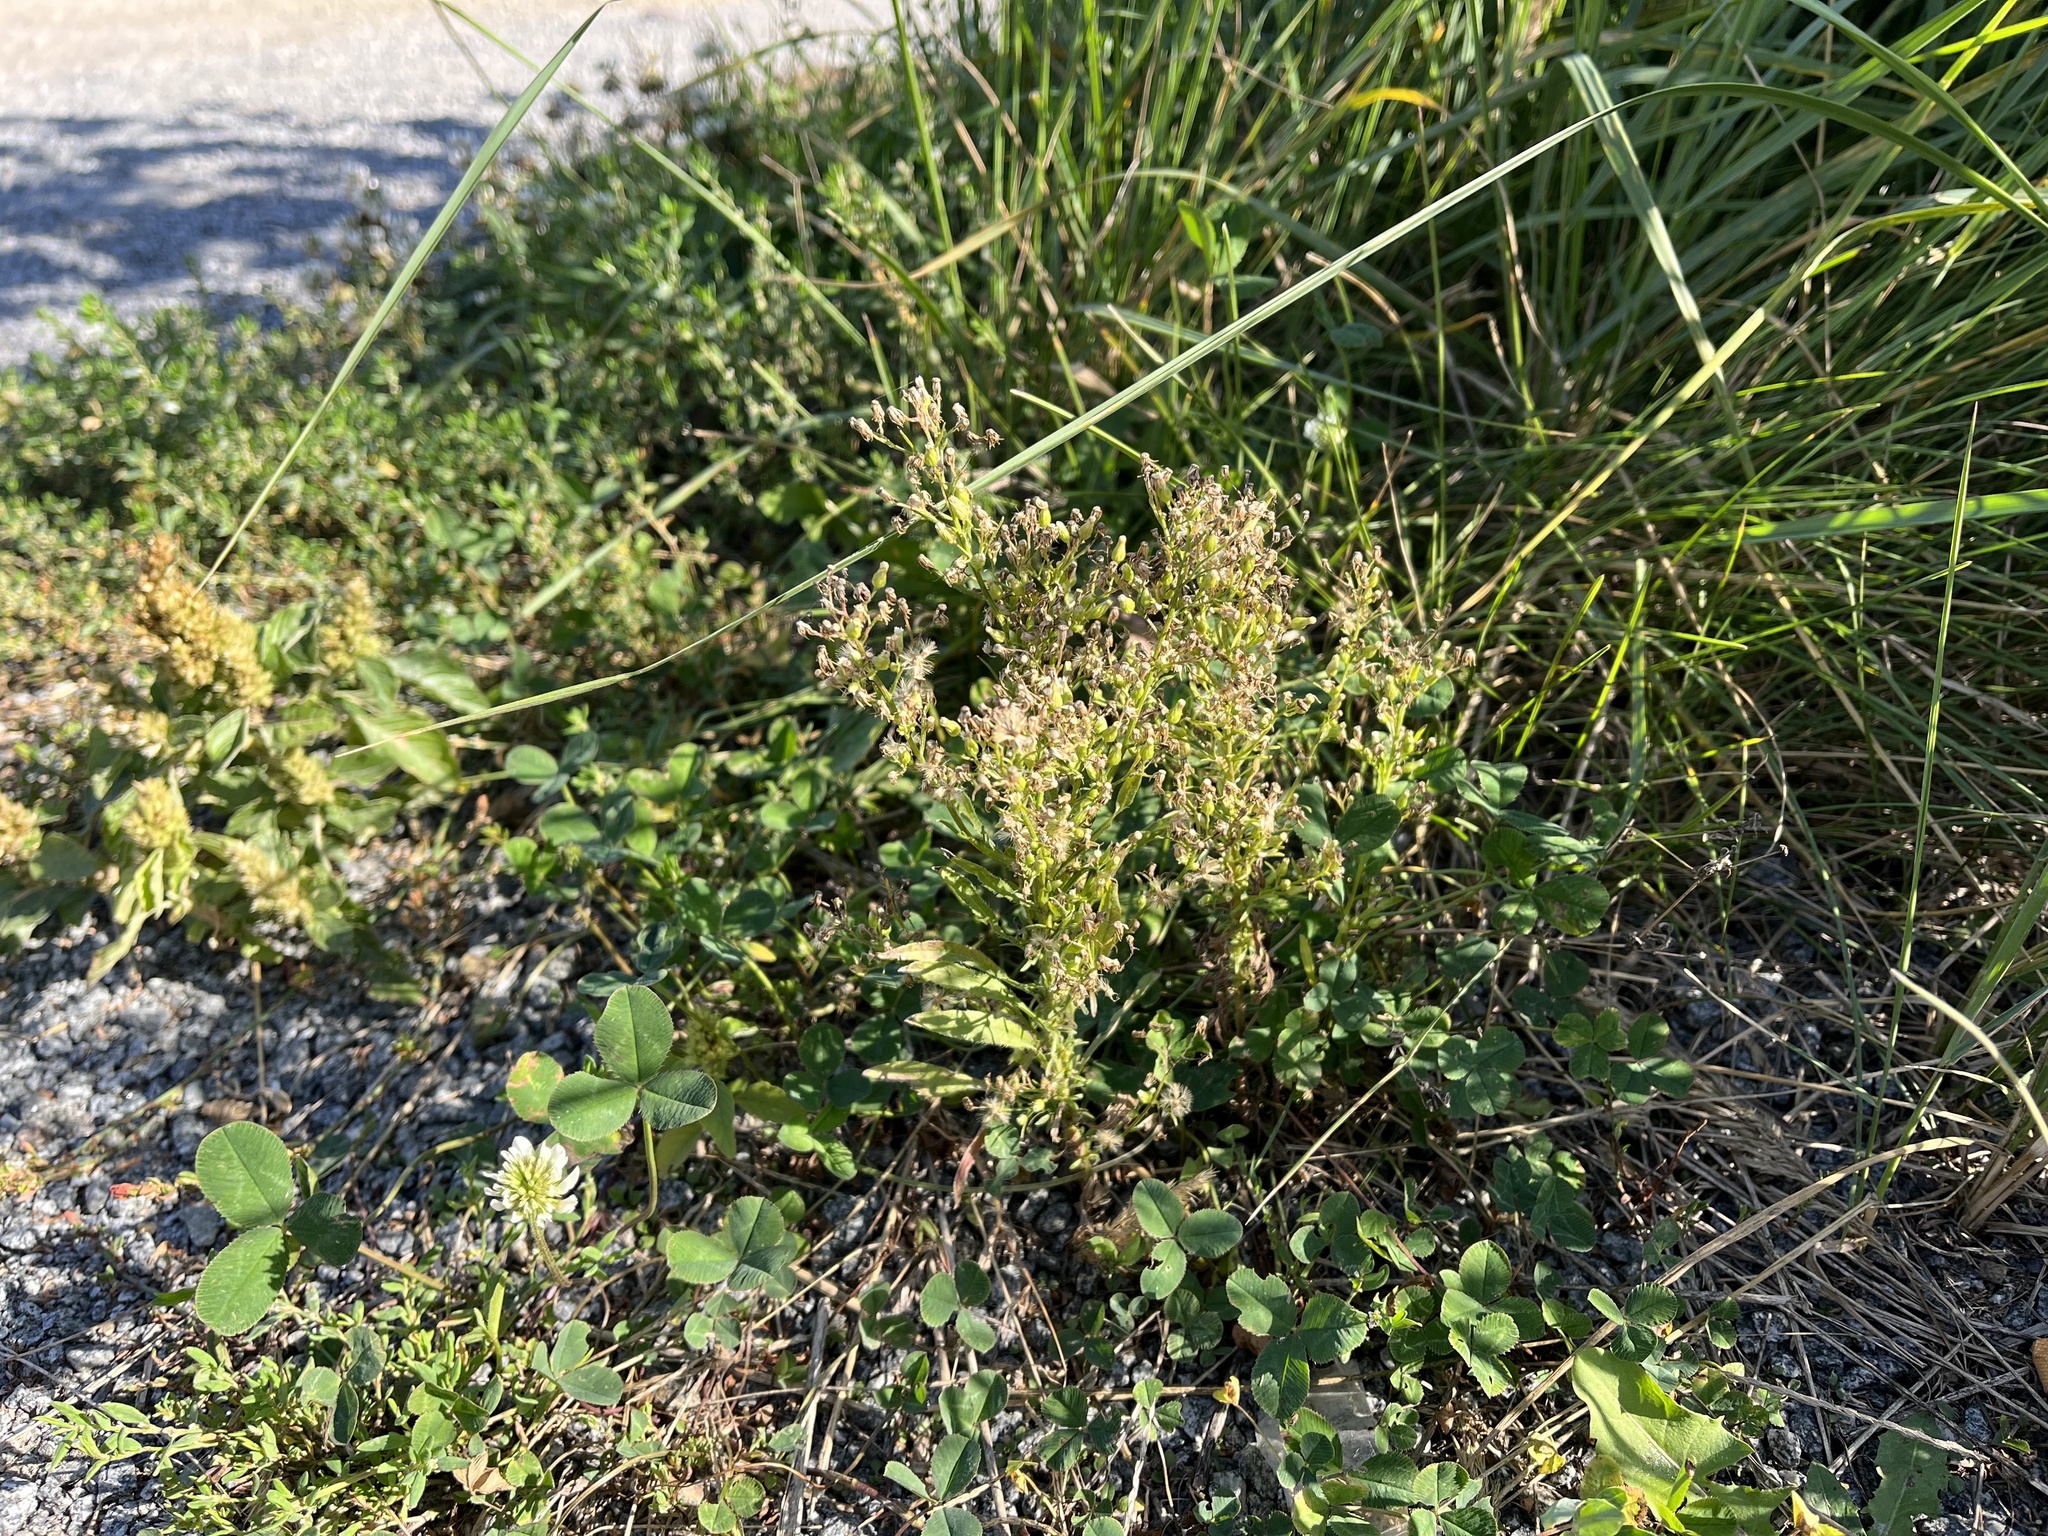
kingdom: Plantae
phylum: Tracheophyta
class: Magnoliopsida
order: Asterales
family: Asteraceae
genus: Erigeron
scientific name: Erigeron canadensis
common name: Canadian fleabane
